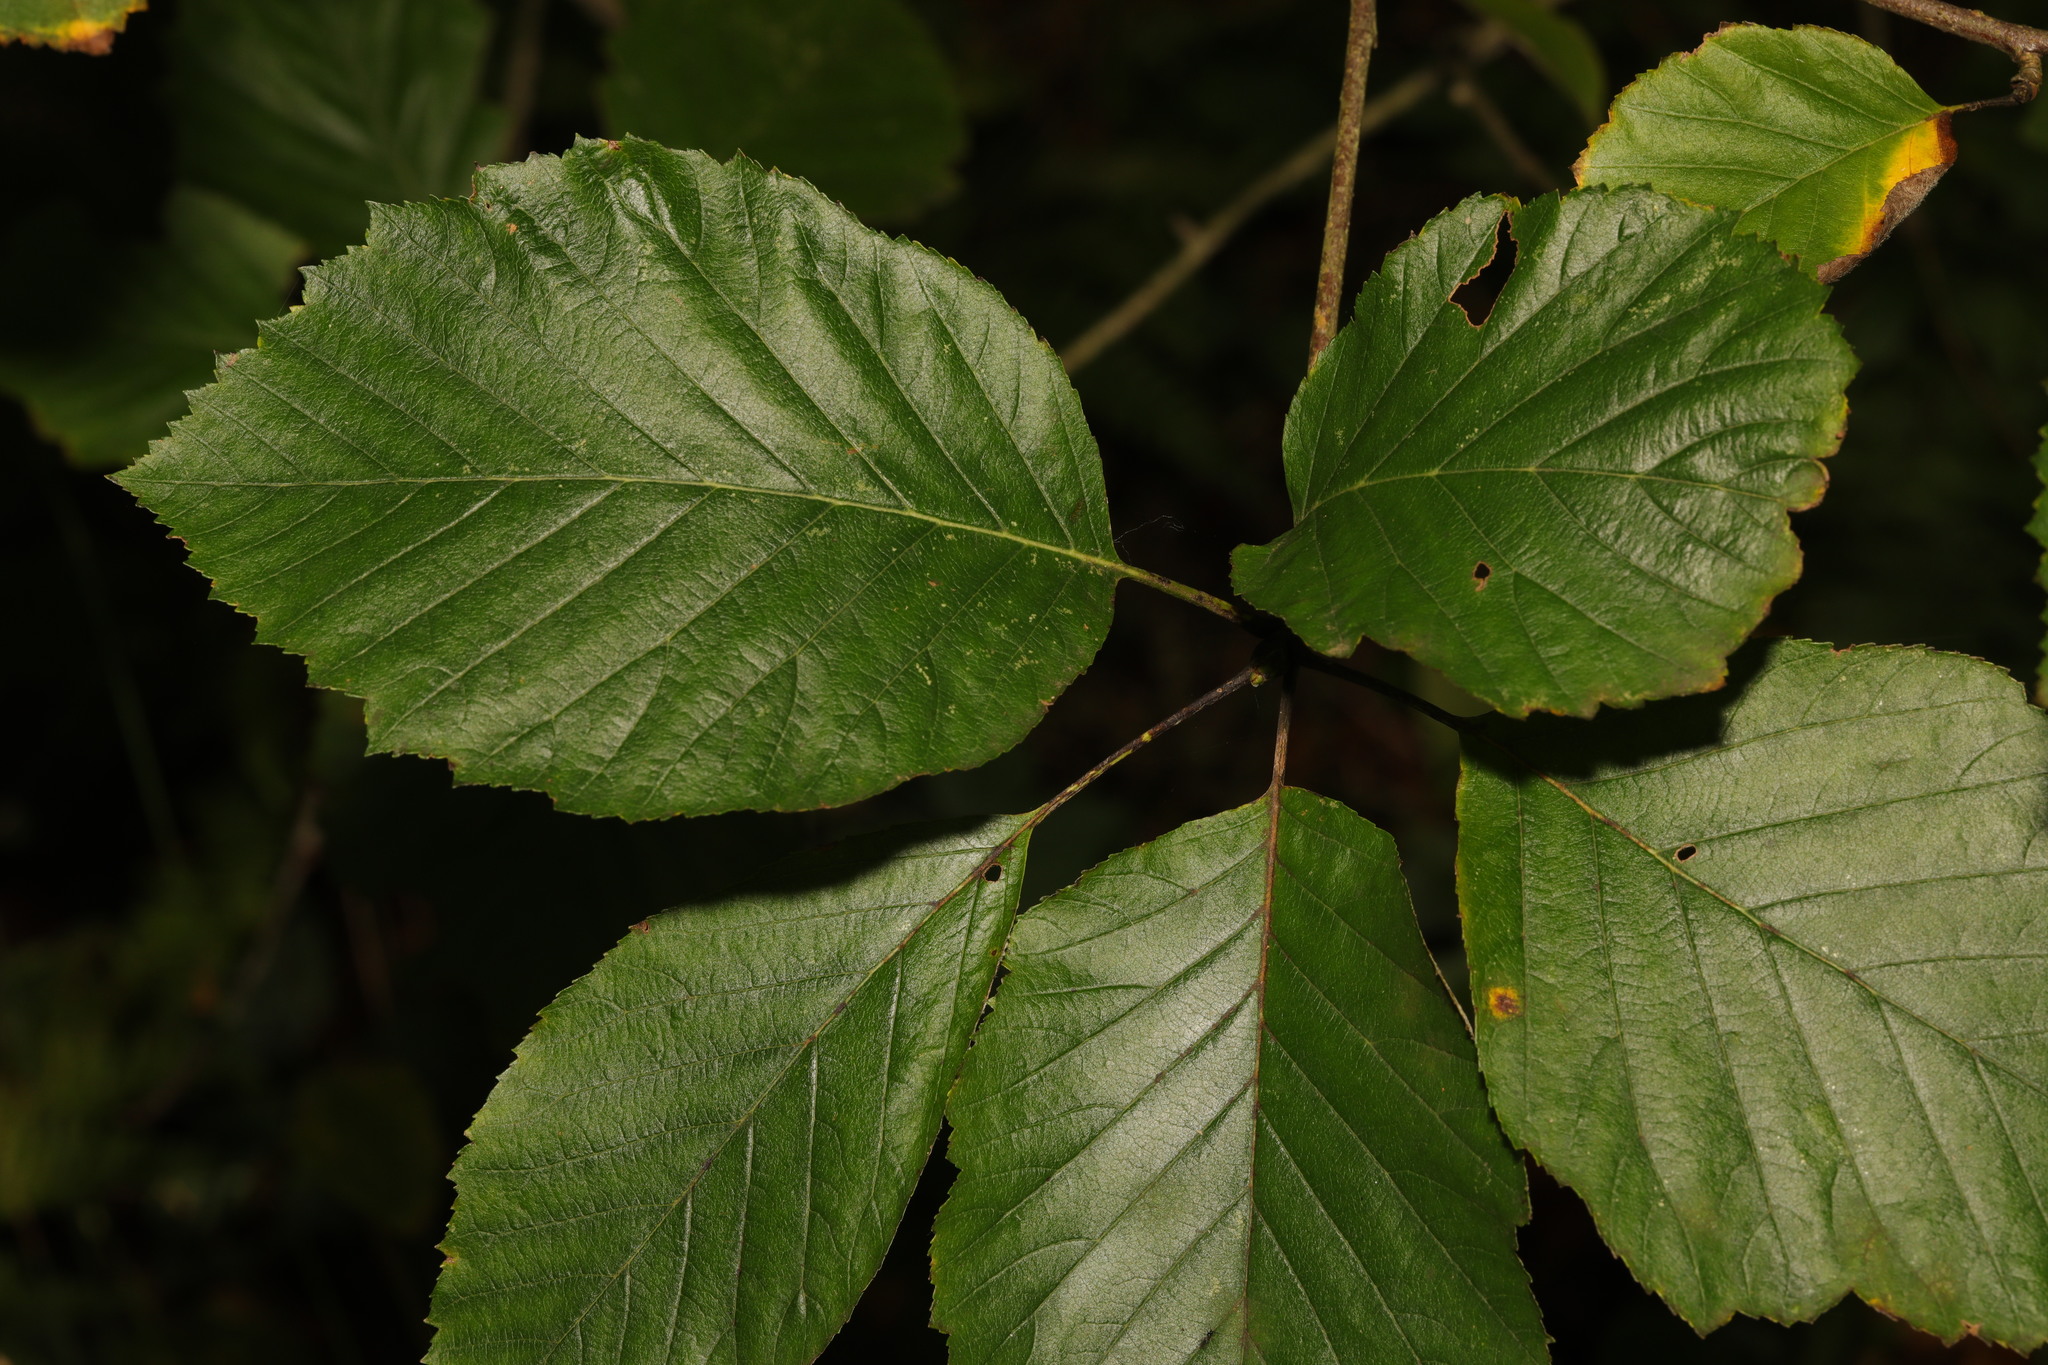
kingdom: Plantae
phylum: Tracheophyta
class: Magnoliopsida
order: Rosales
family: Rosaceae
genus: Aria
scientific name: Aria edulis
